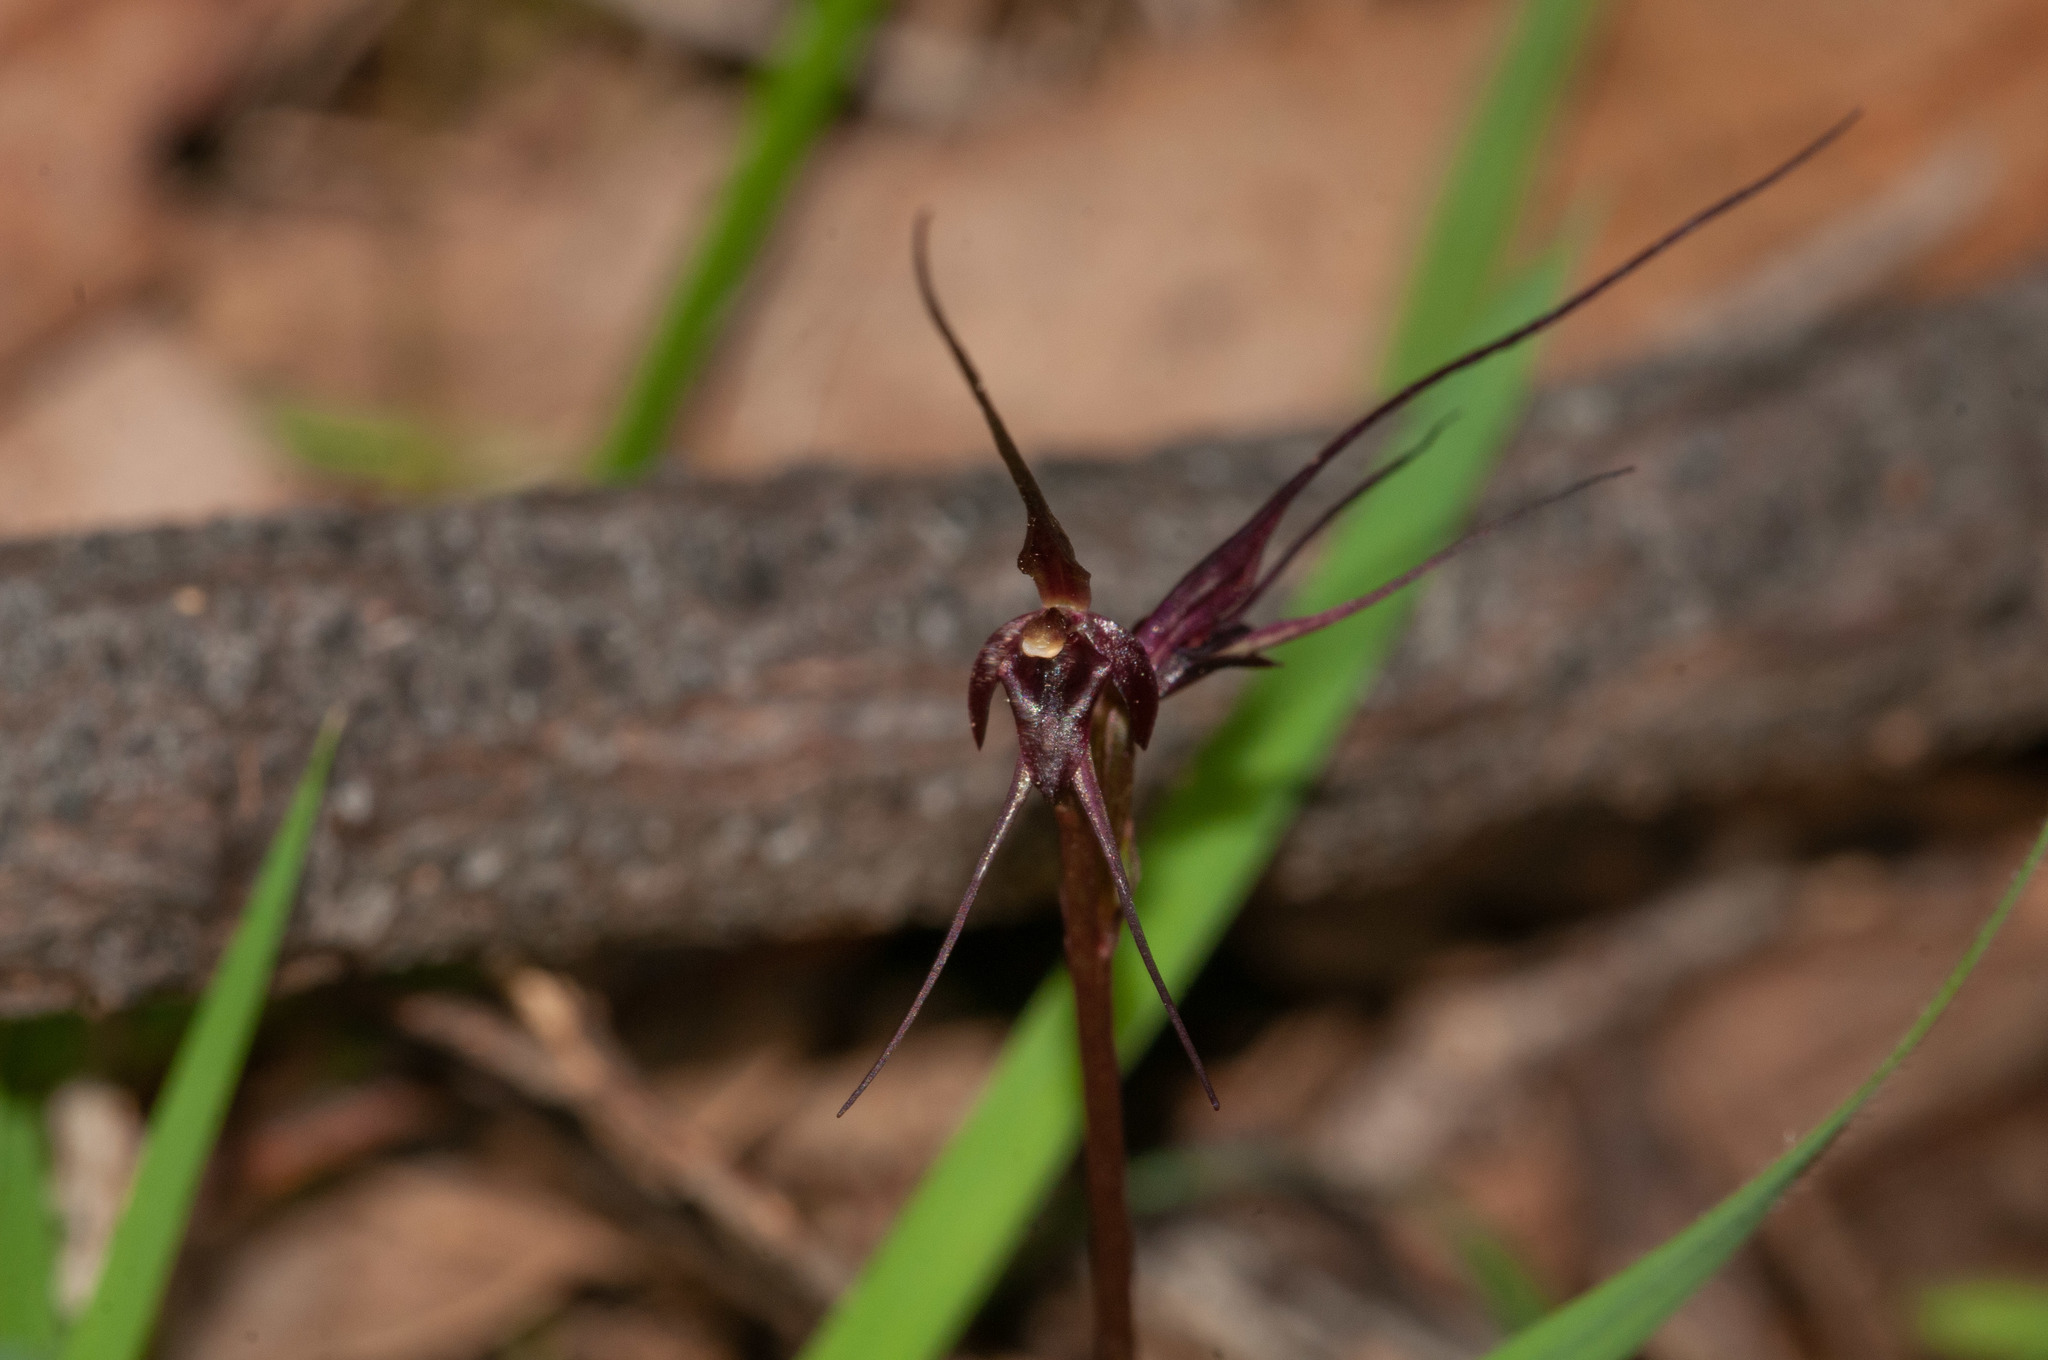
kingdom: Plantae
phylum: Tracheophyta
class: Liliopsida
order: Asparagales
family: Orchidaceae
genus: Acianthus
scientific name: Acianthus caudatus
